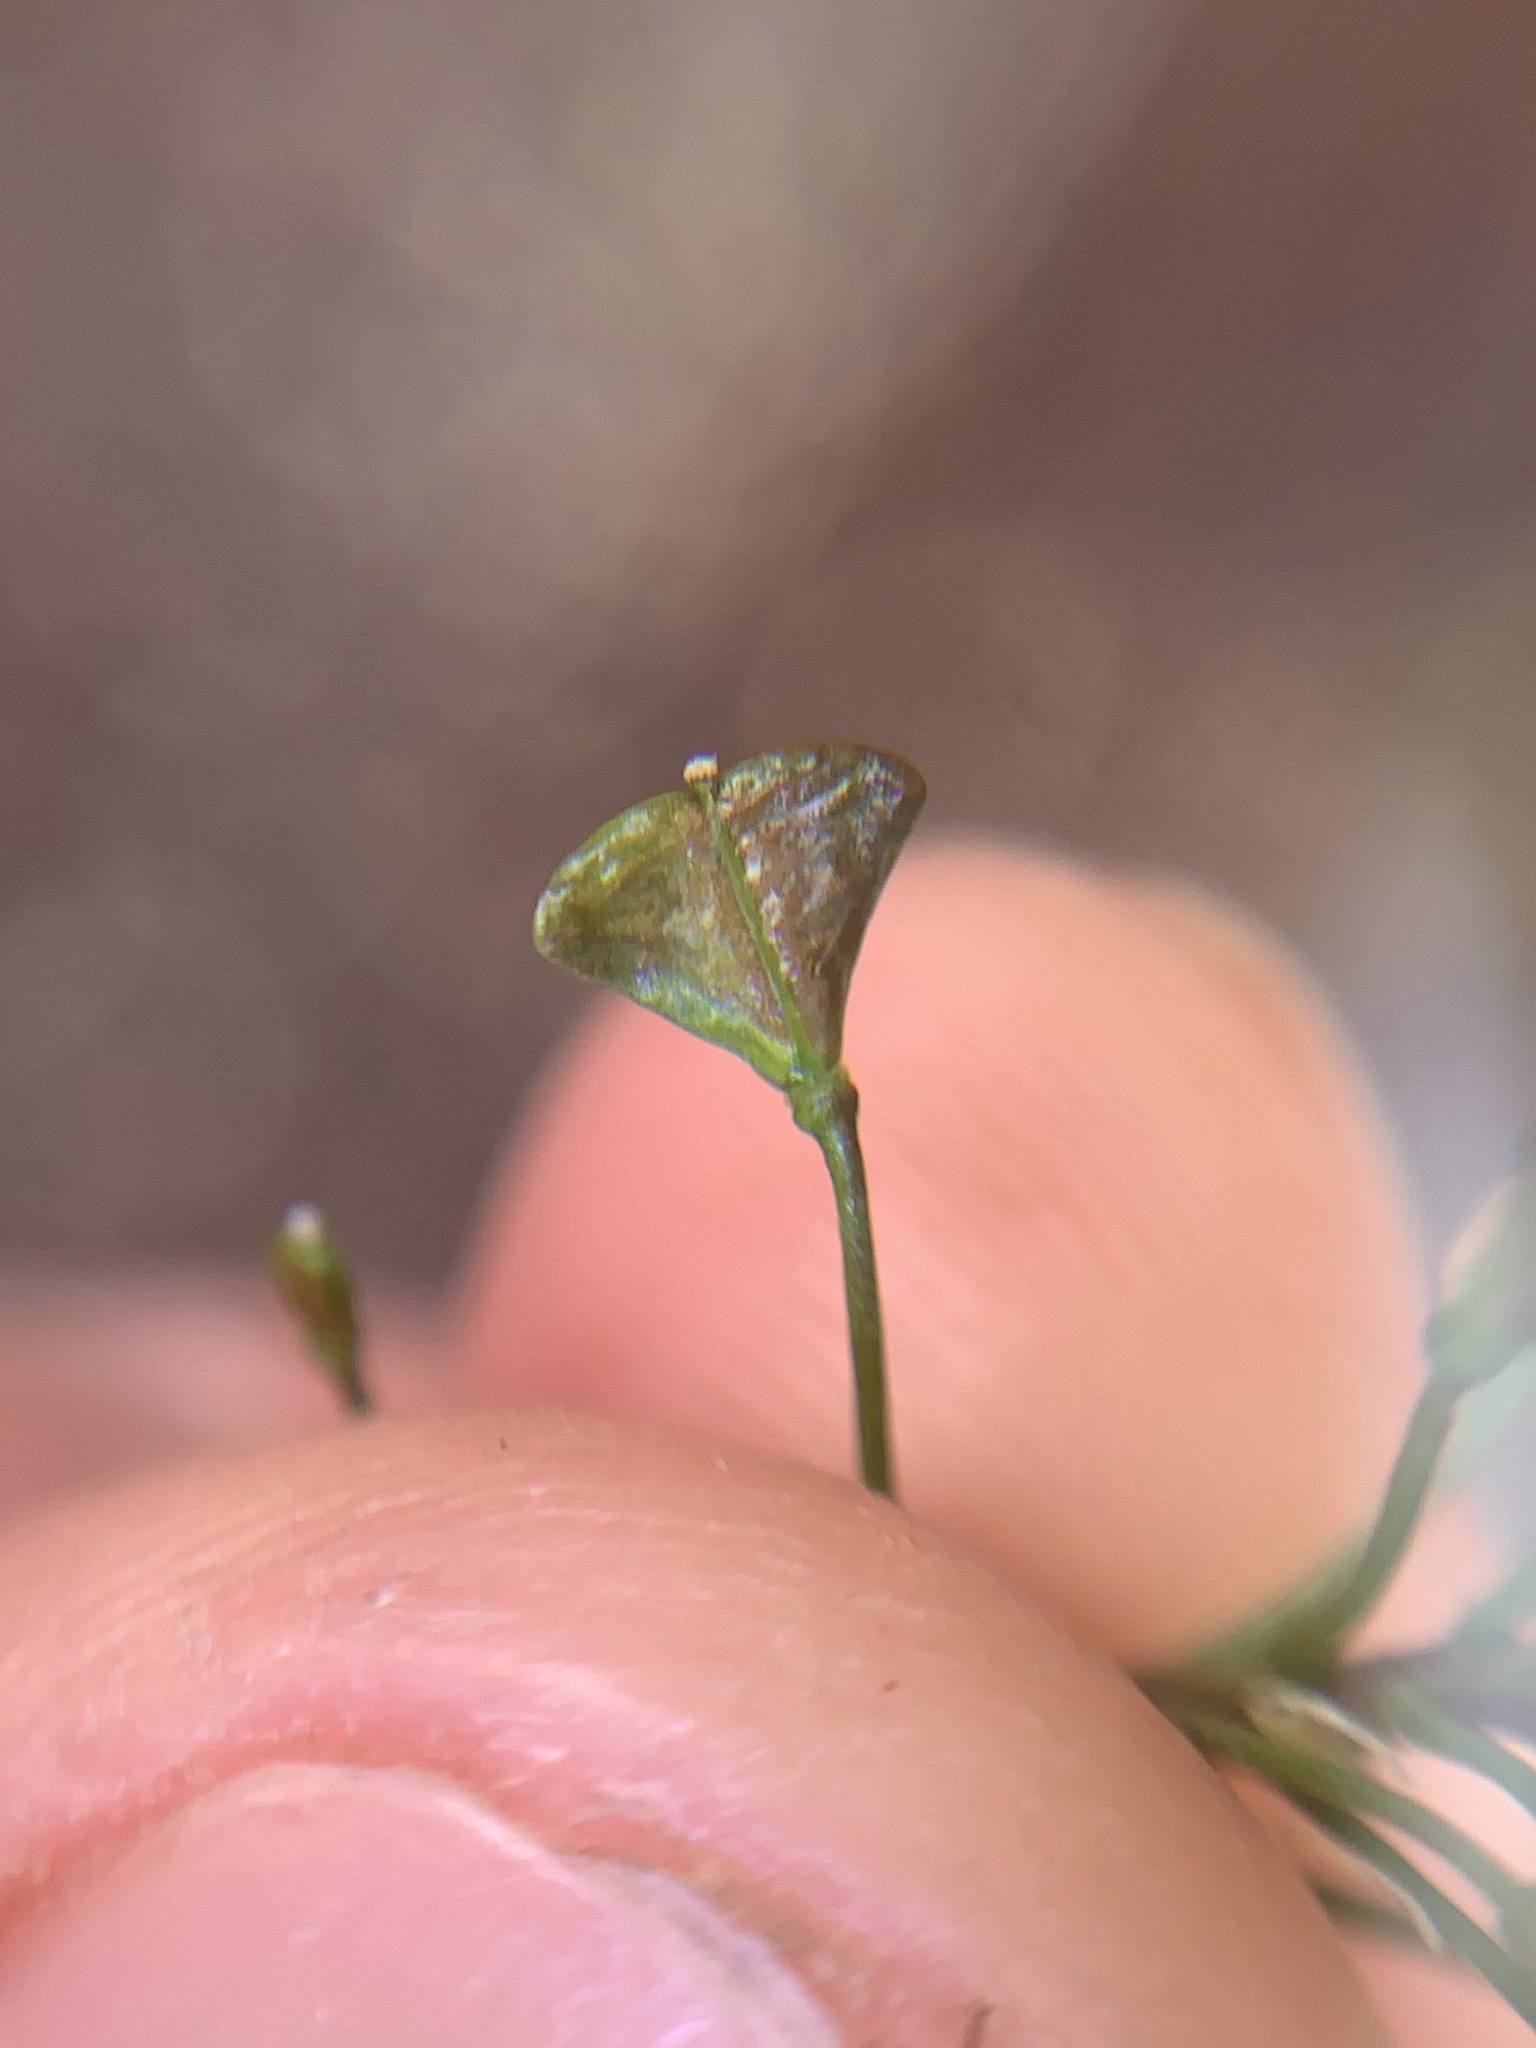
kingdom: Plantae
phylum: Tracheophyta
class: Magnoliopsida
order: Brassicales
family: Brassicaceae
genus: Capsella
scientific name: Capsella bursa-pastoris
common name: Shepherd's purse
